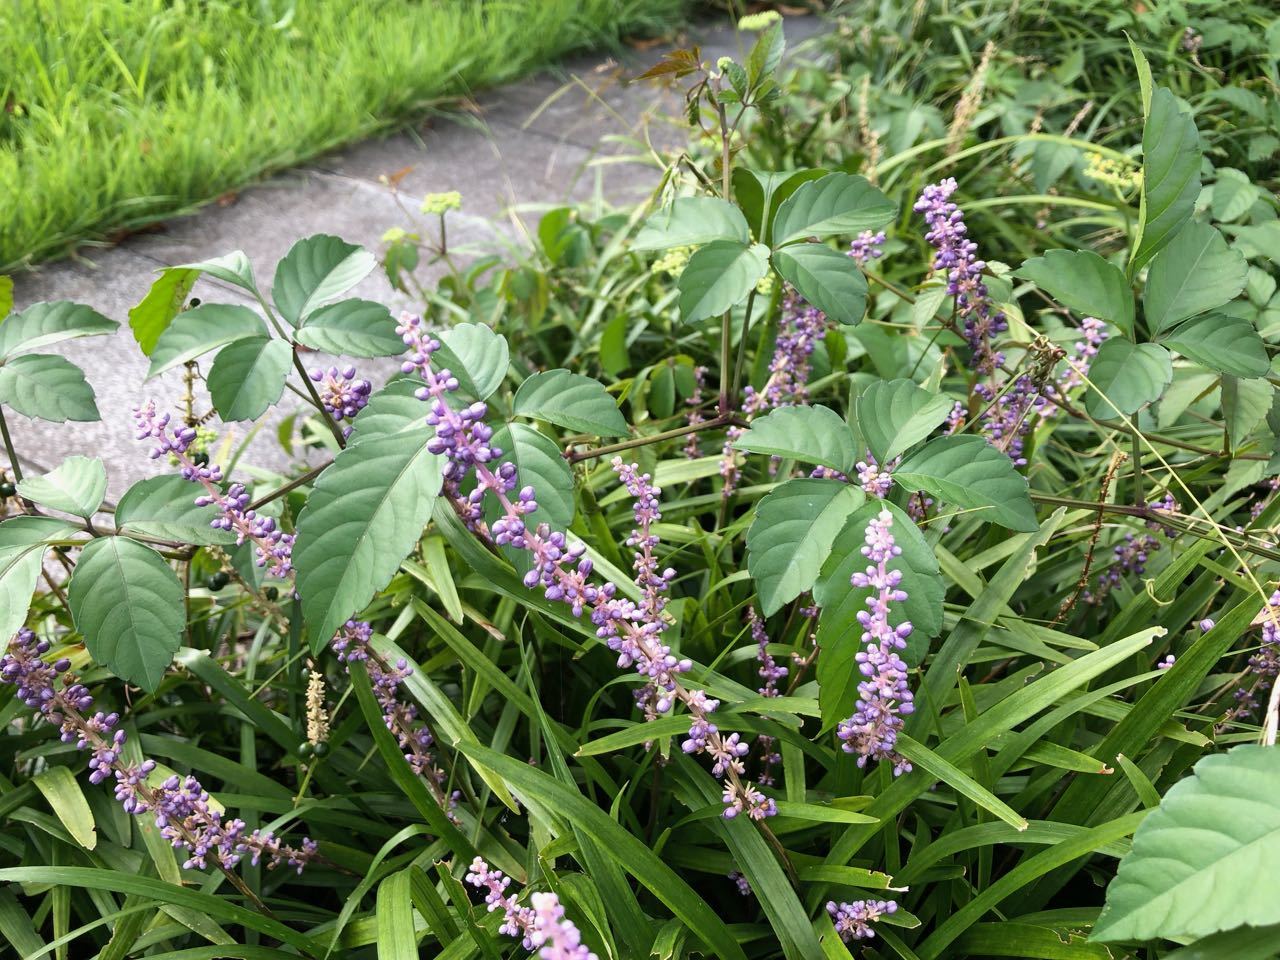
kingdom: Plantae
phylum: Tracheophyta
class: Liliopsida
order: Asparagales
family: Asparagaceae
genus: Liriope
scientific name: Liriope muscari
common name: Big blue lilyturf
